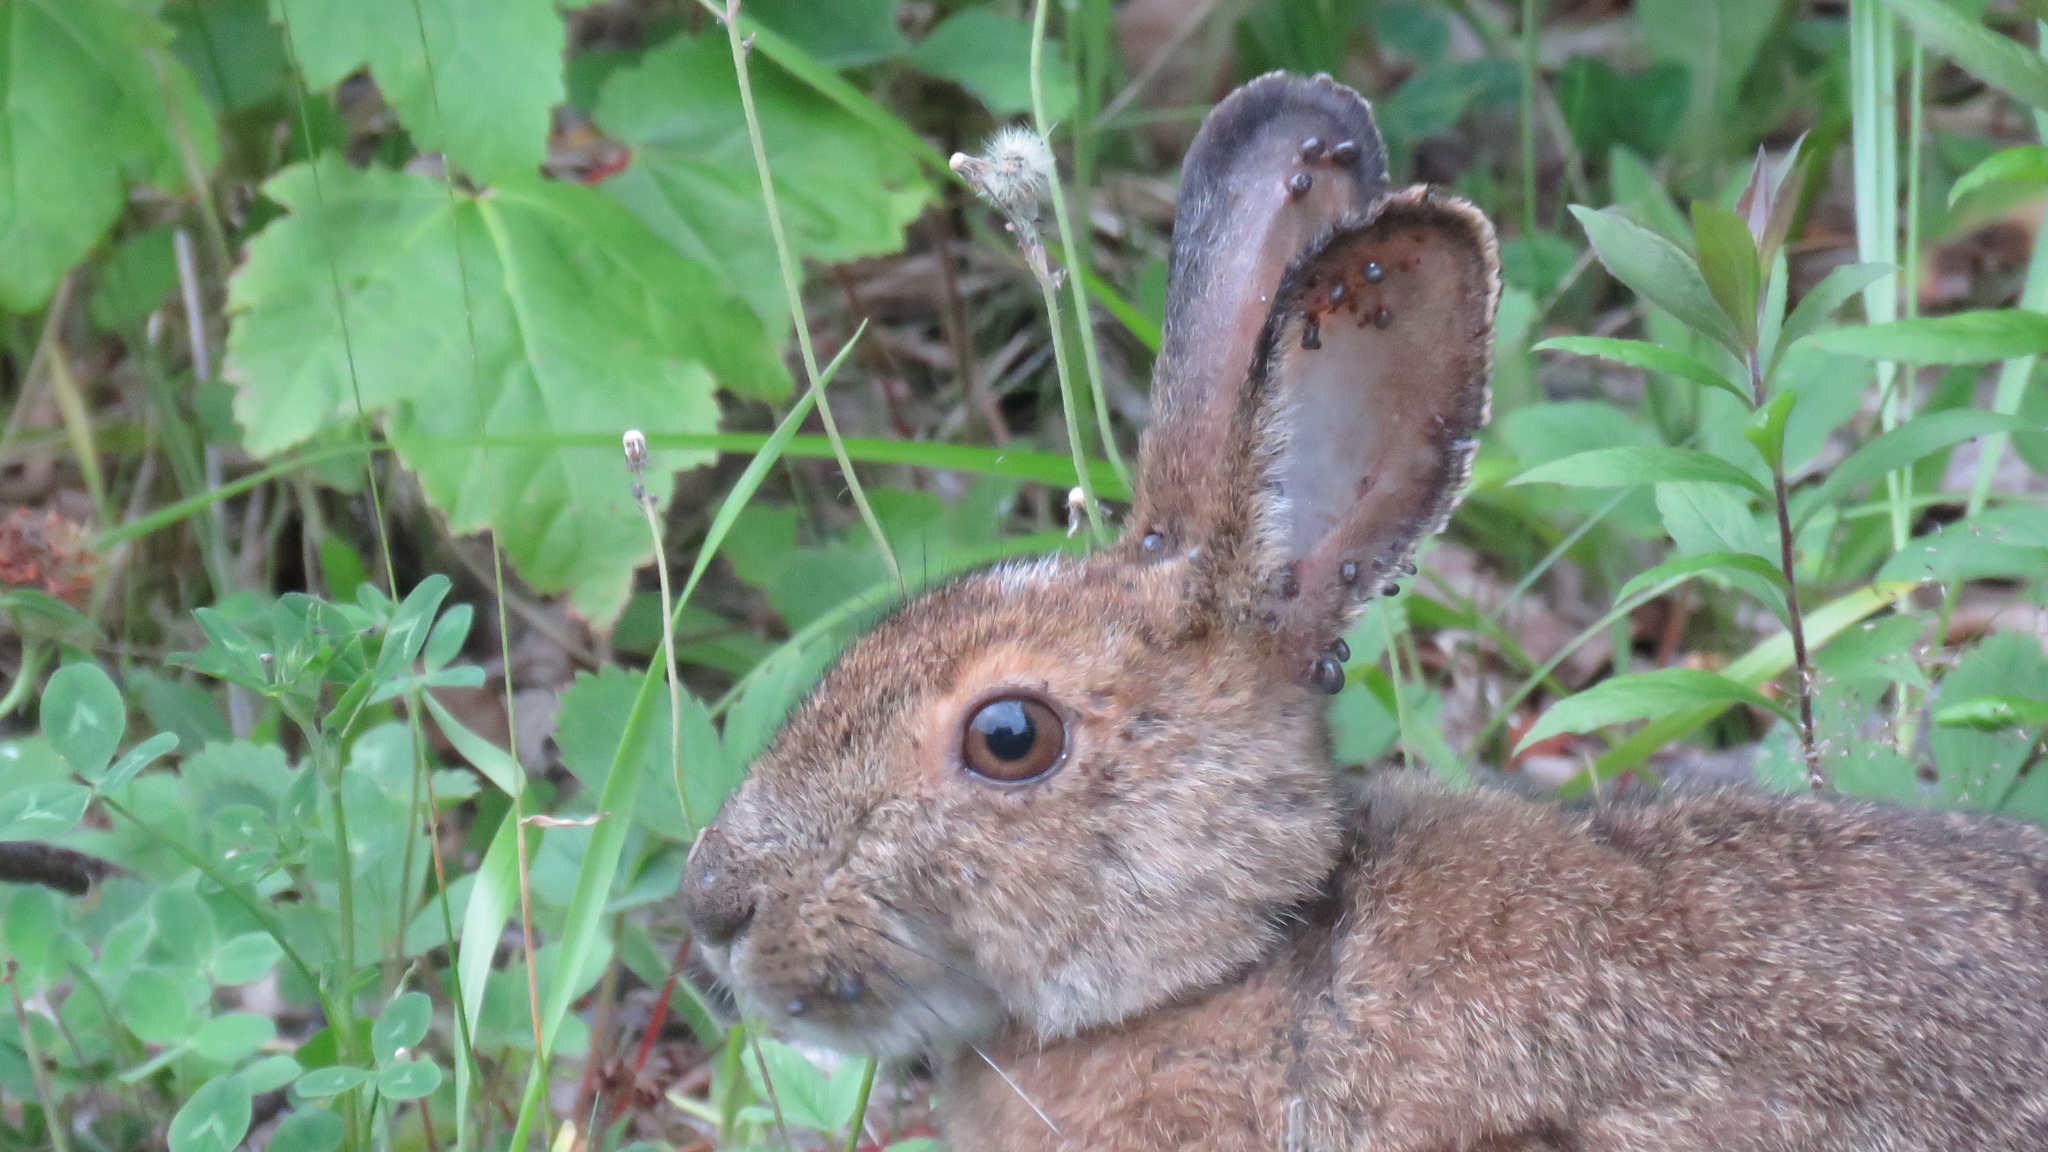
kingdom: Animalia
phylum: Chordata
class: Mammalia
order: Lagomorpha
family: Leporidae
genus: Lepus
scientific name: Lepus americanus
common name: Snowshoe hare
